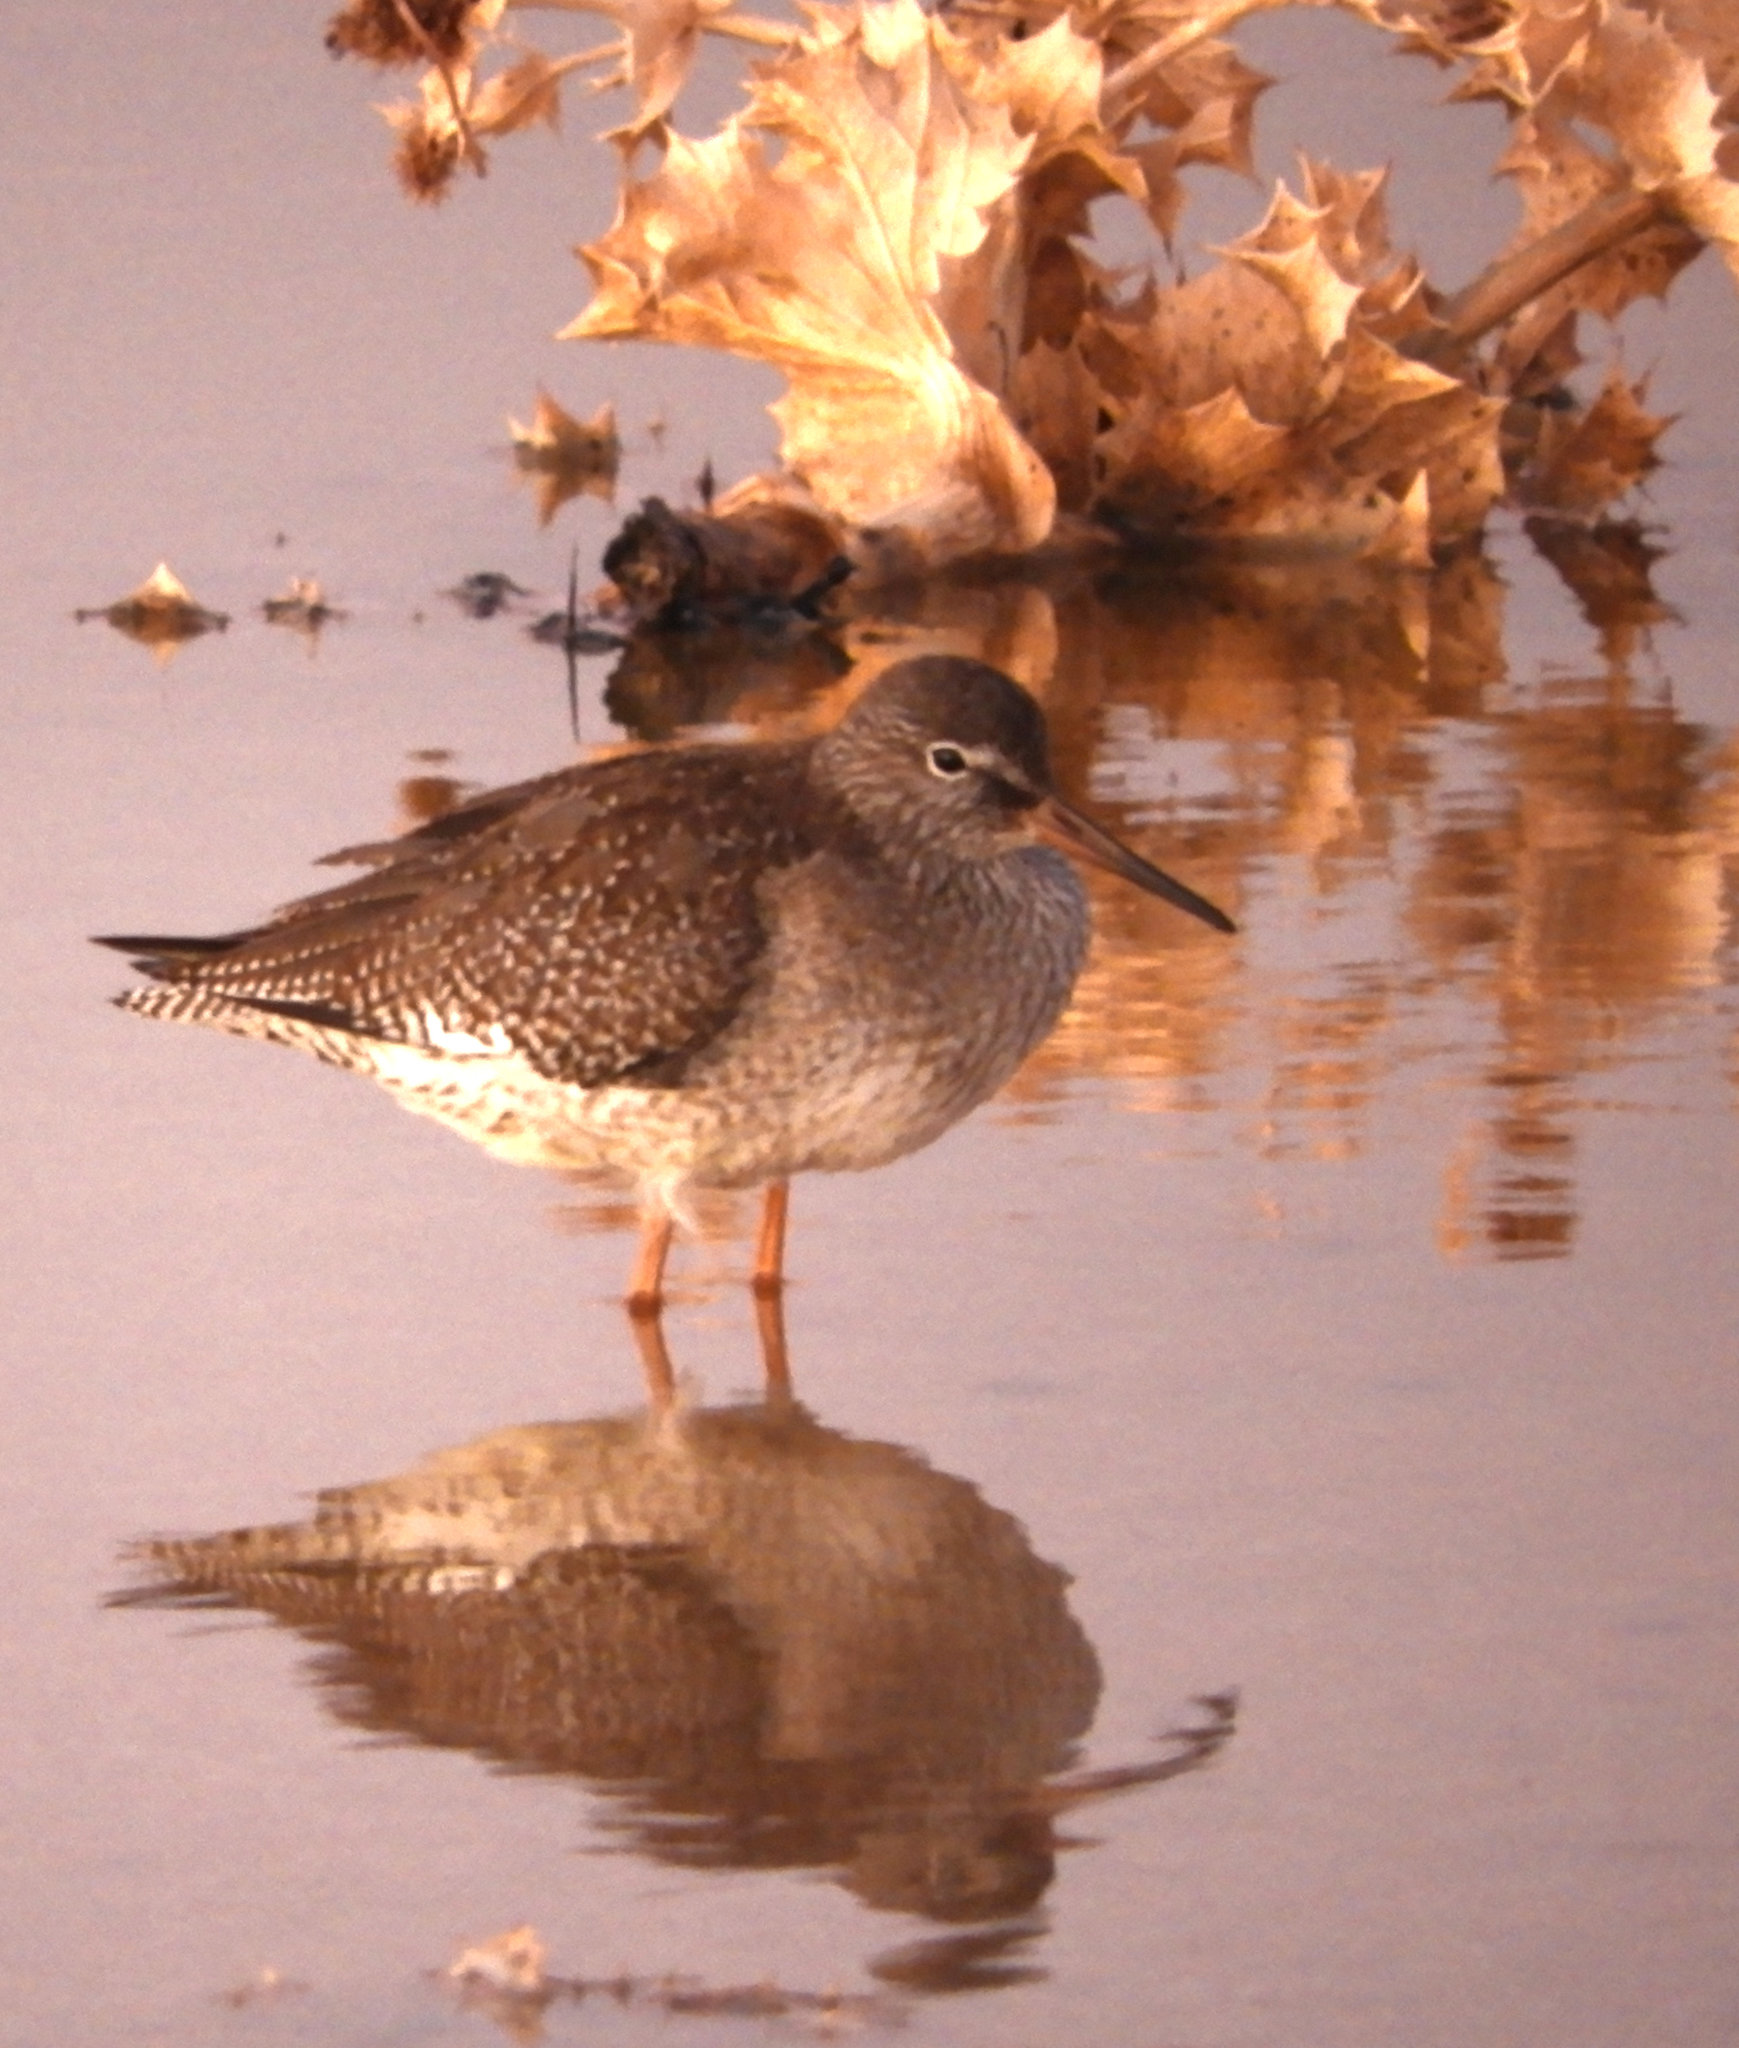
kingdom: Animalia
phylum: Chordata
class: Aves
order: Charadriiformes
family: Scolopacidae
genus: Tringa
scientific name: Tringa totanus
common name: Common redshank
